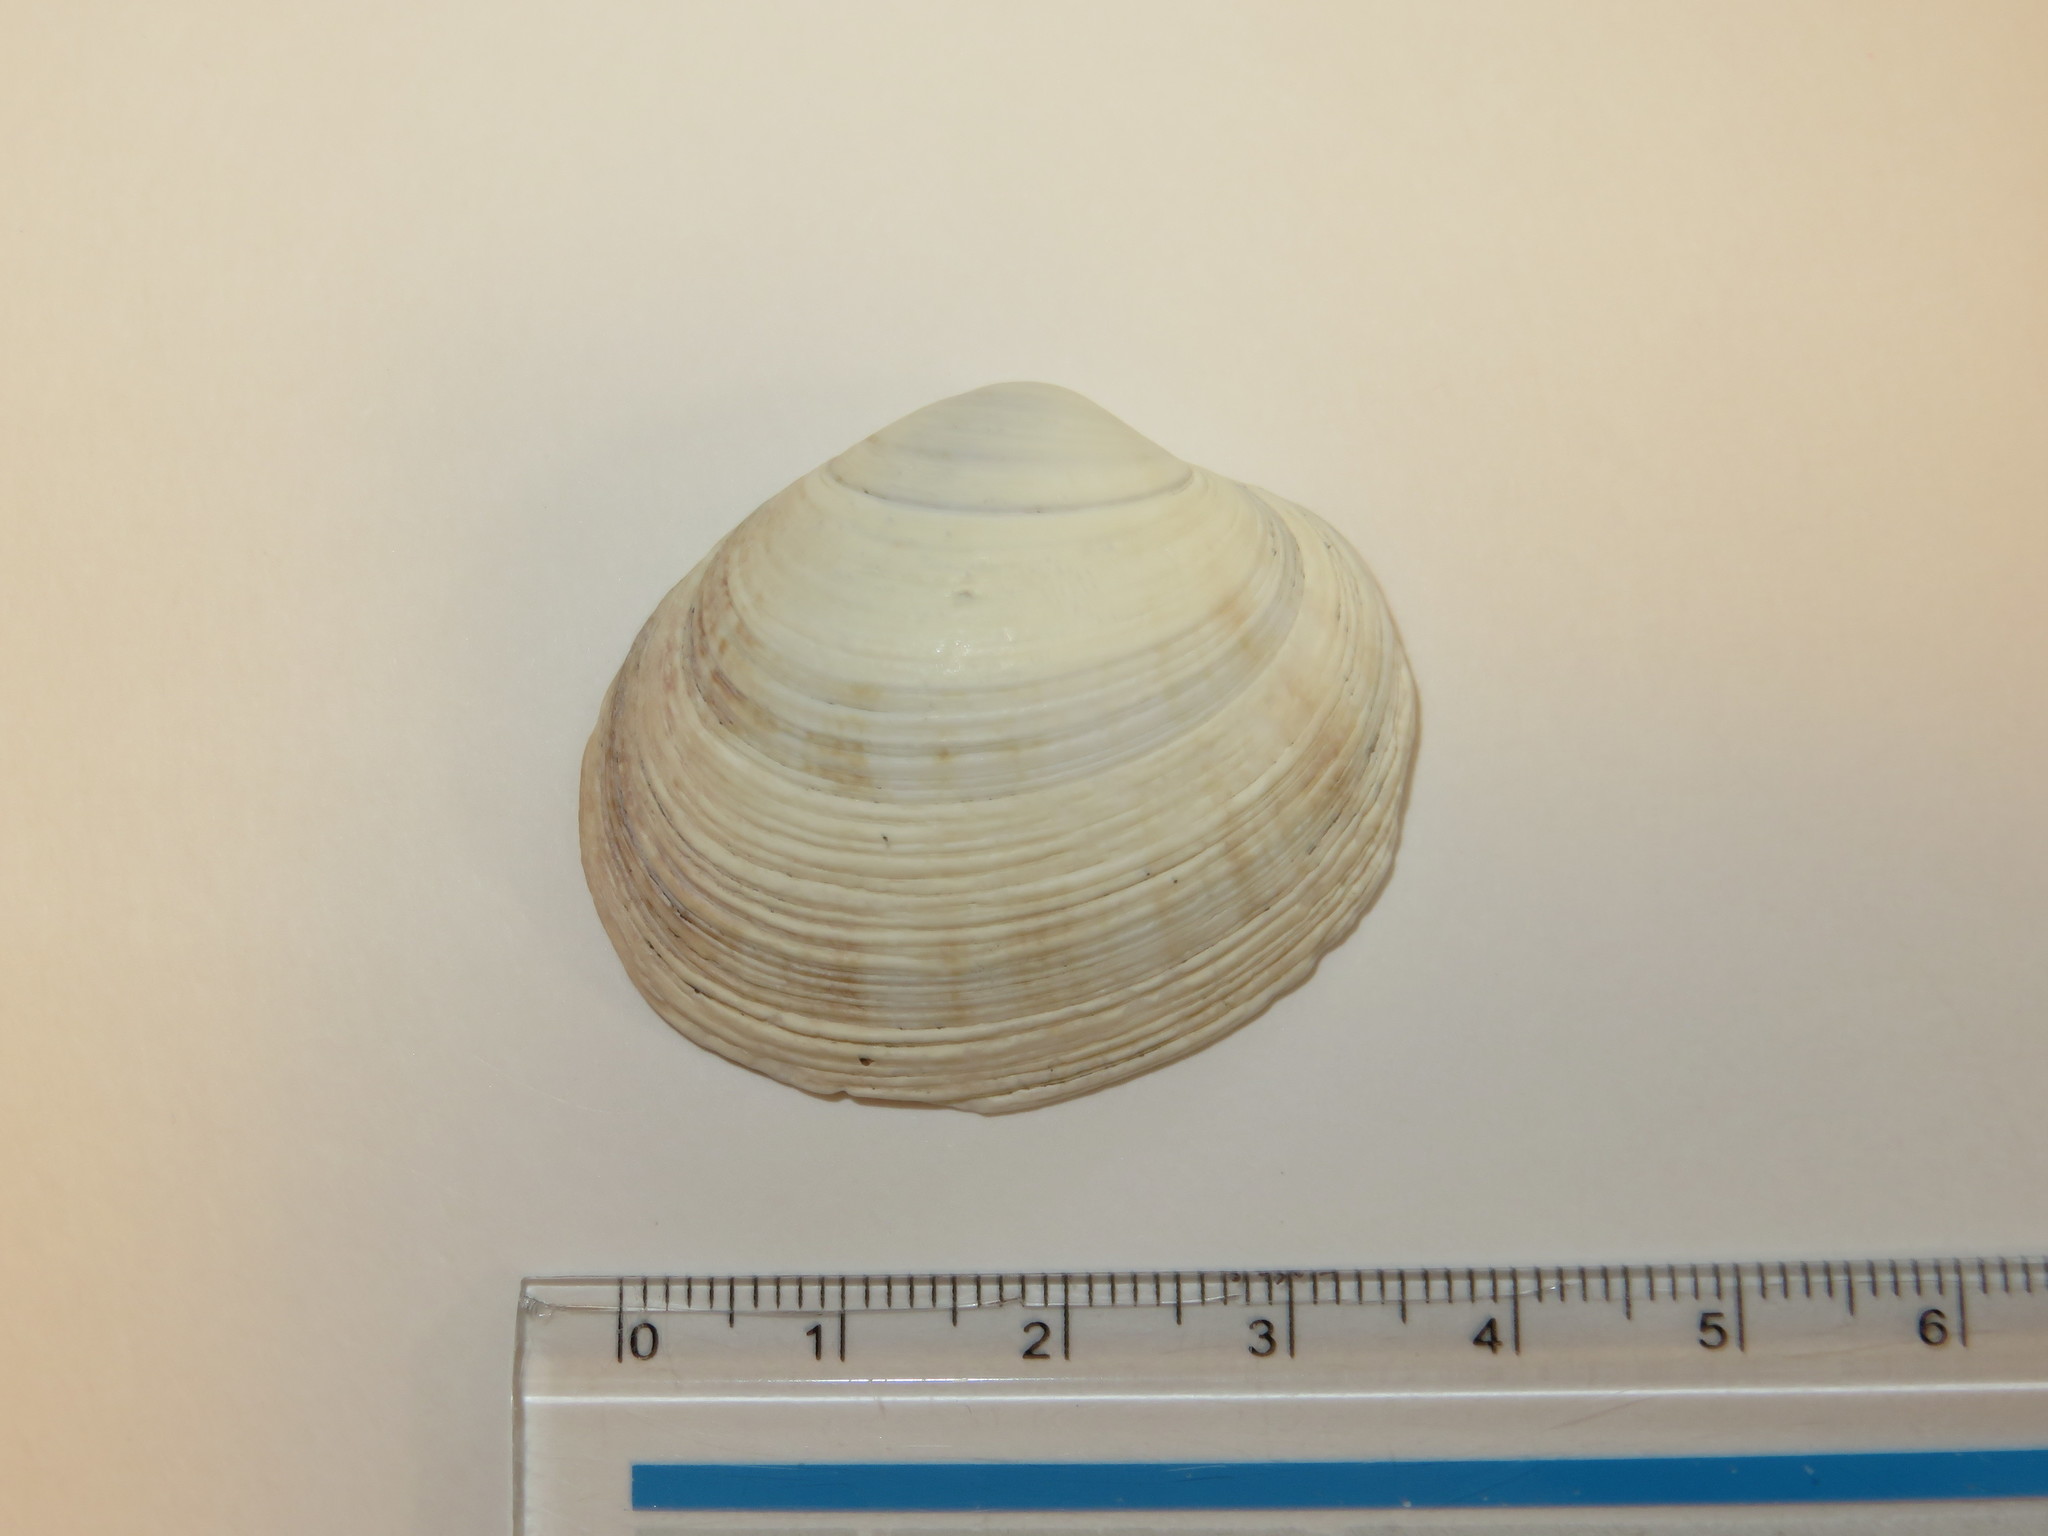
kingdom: Animalia
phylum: Mollusca
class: Bivalvia
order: Venerida
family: Veneridae
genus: Saxidomus
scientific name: Saxidomus purpurata
